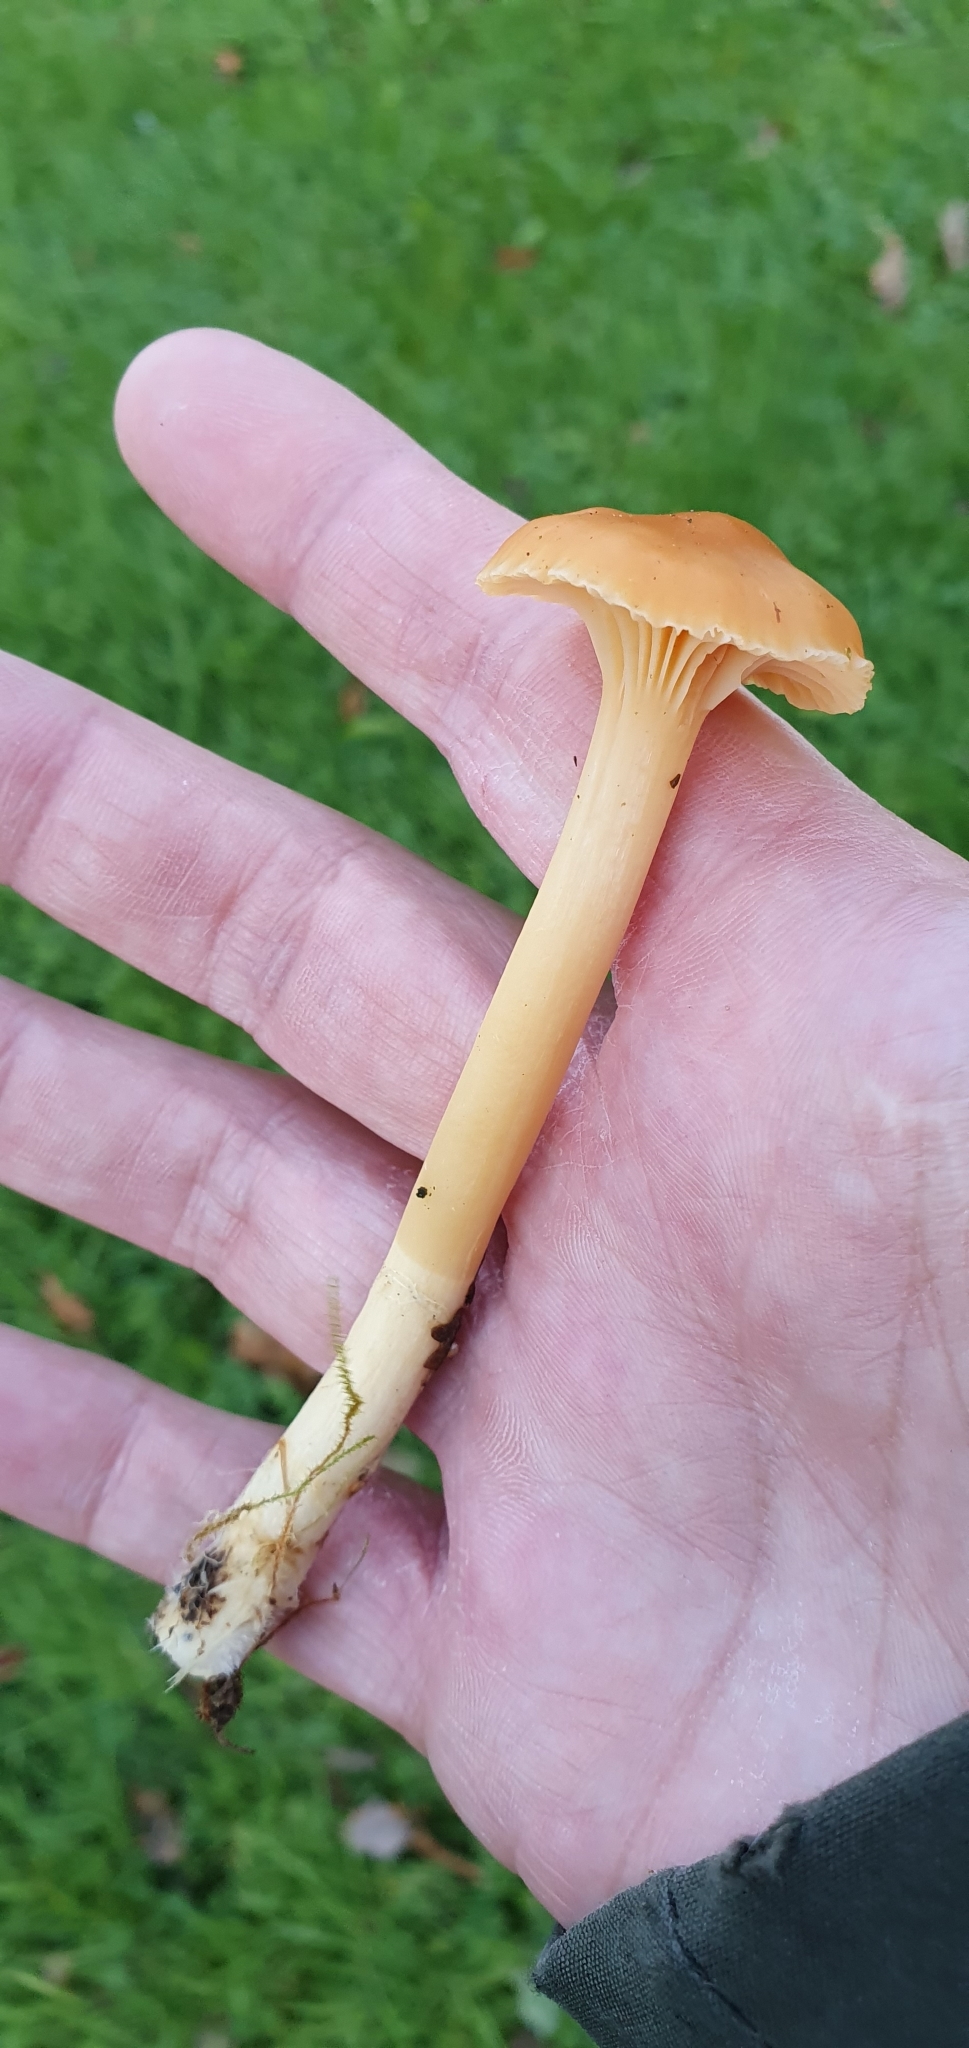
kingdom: Fungi
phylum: Basidiomycota
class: Agaricomycetes
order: Agaricales
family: Hygrophoraceae
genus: Cuphophyllus
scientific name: Cuphophyllus pratensis
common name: Meadow waxcap
